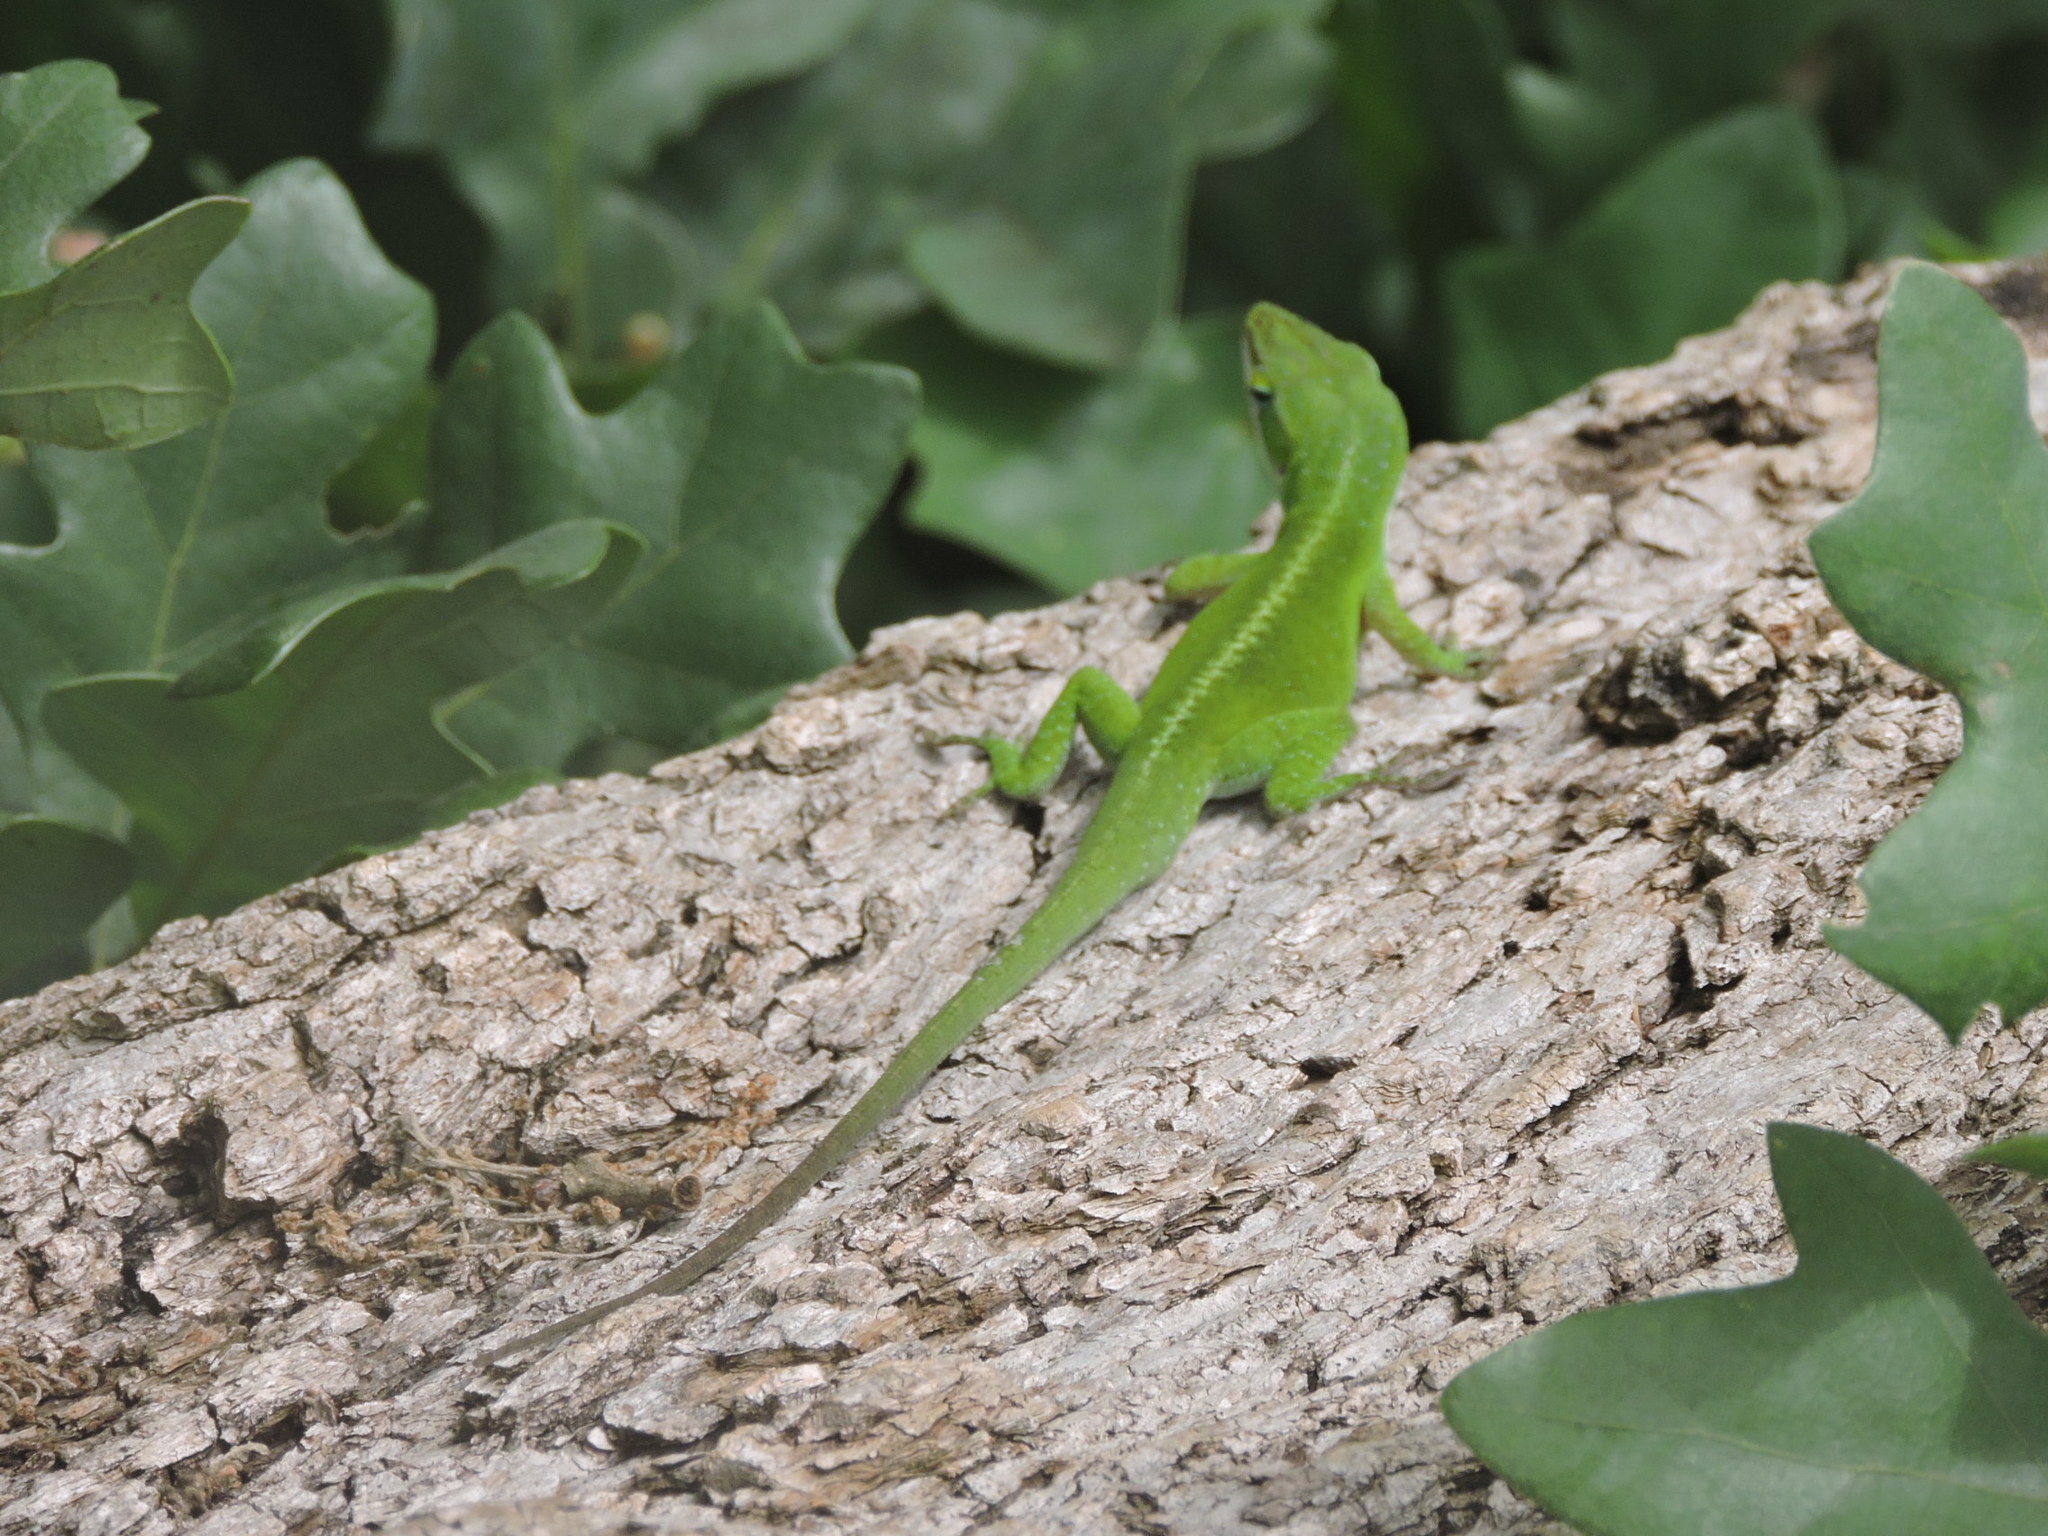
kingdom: Animalia
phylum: Chordata
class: Squamata
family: Dactyloidae
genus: Anolis
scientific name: Anolis carolinensis
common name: Green anole
